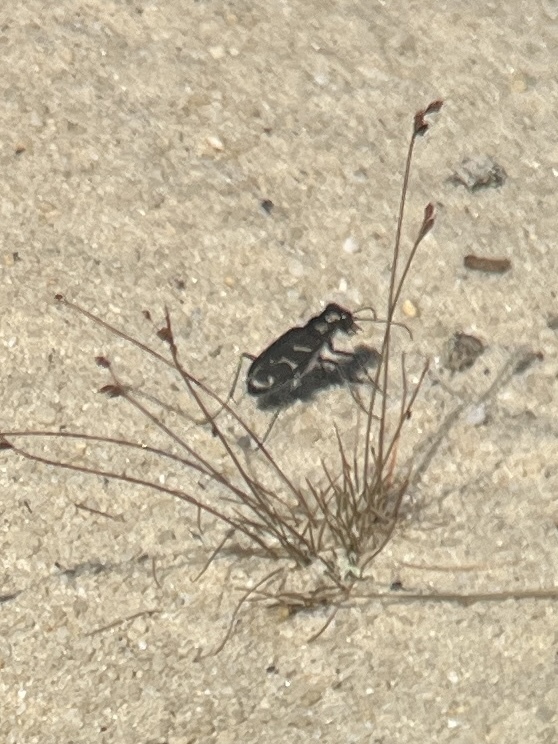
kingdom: Animalia
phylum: Arthropoda
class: Insecta
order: Coleoptera
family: Carabidae
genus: Cicindela
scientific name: Cicindela tranquebarica
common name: Oblique-lined tiger beetle
